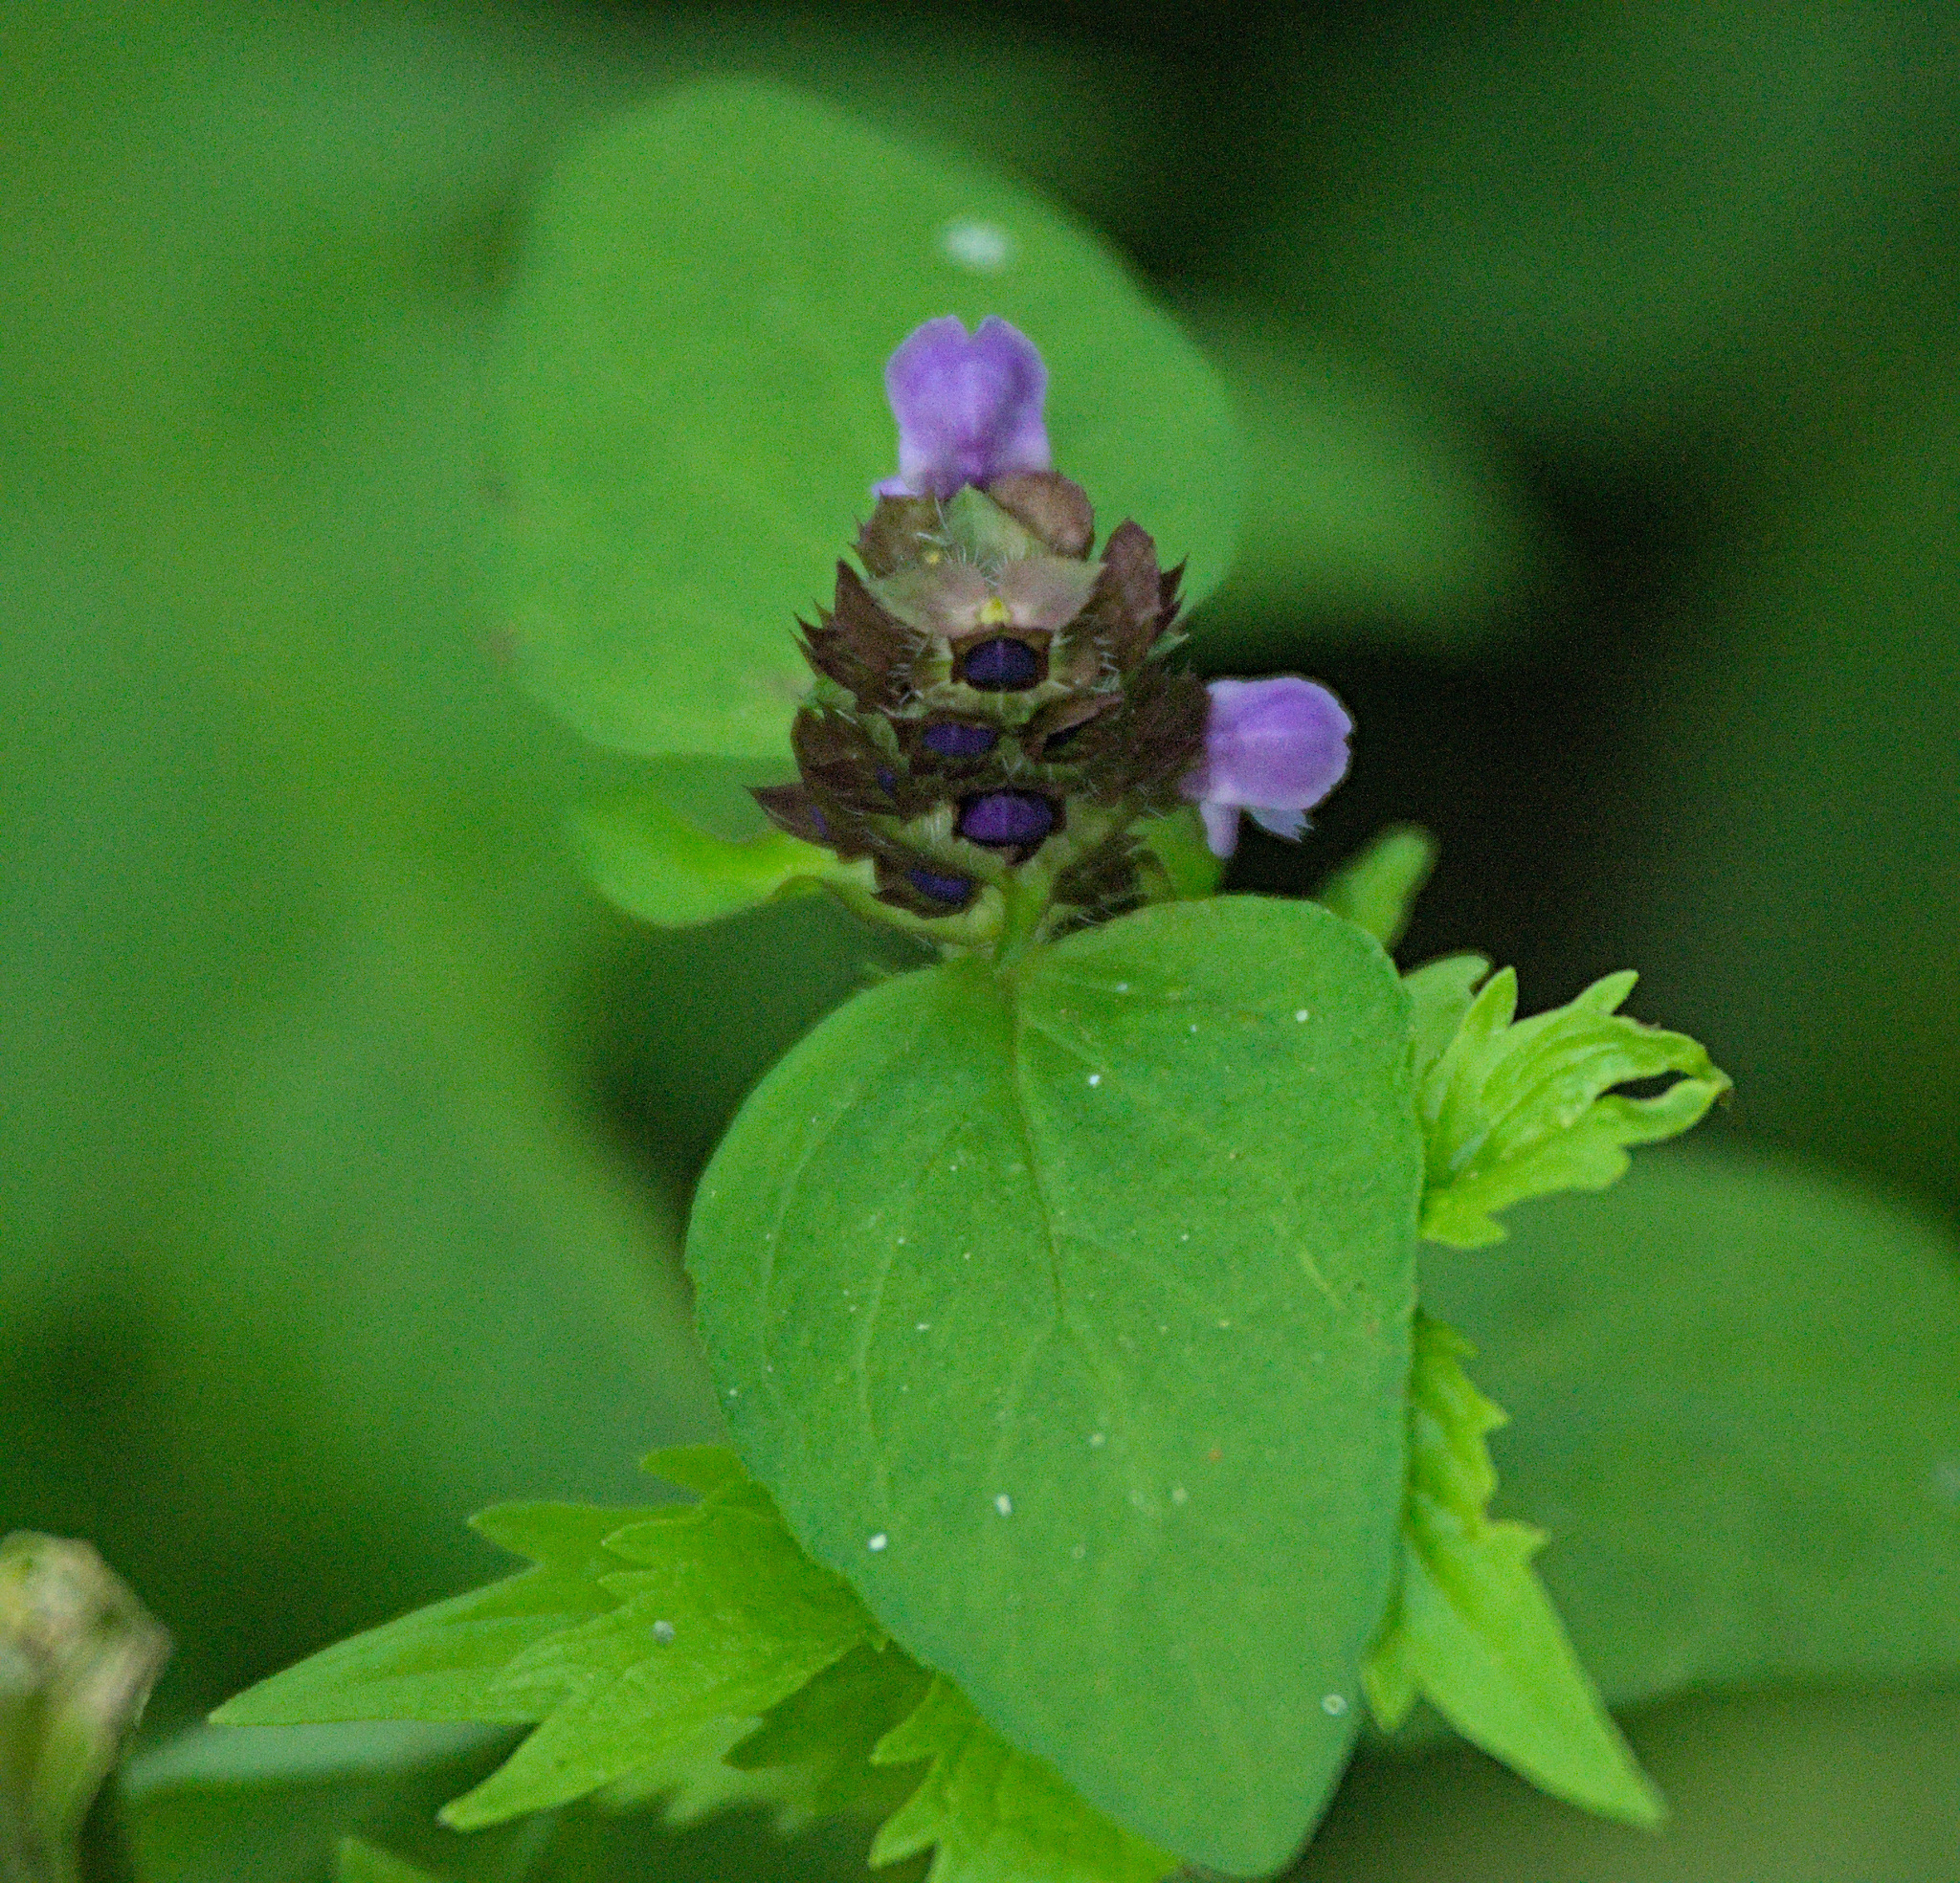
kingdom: Plantae
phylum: Tracheophyta
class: Magnoliopsida
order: Lamiales
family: Lamiaceae
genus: Prunella
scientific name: Prunella vulgaris
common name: Heal-all
